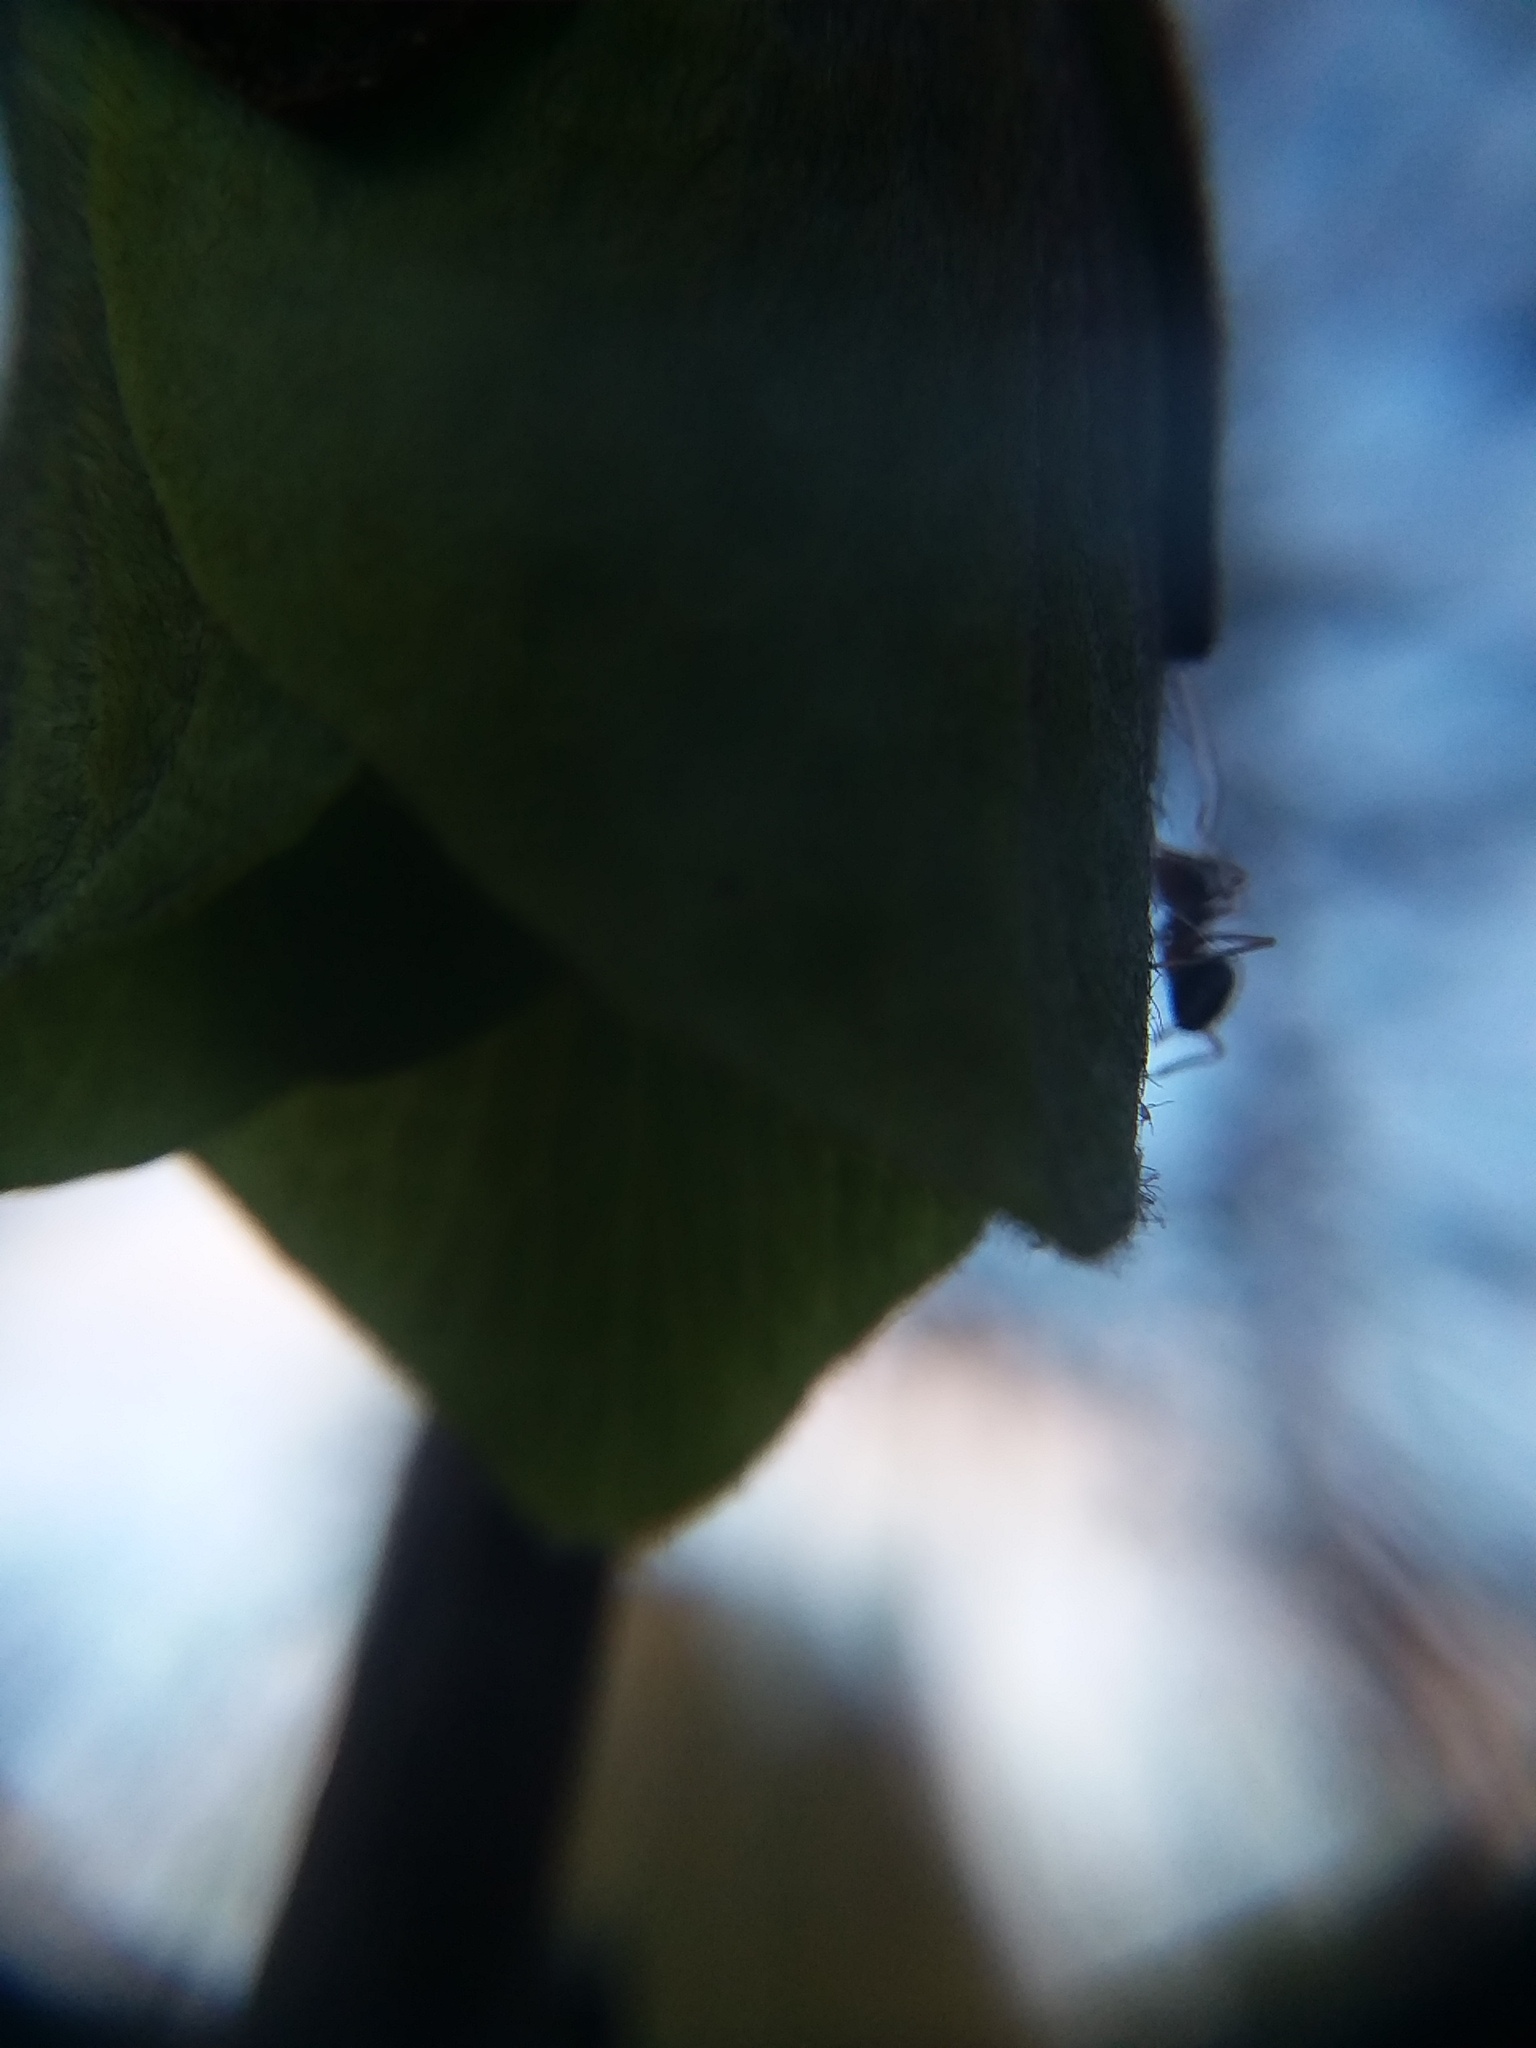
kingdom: Animalia
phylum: Arthropoda
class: Insecta
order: Hymenoptera
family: Formicidae
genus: Prenolepis
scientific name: Prenolepis imparis
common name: Small honey ant
